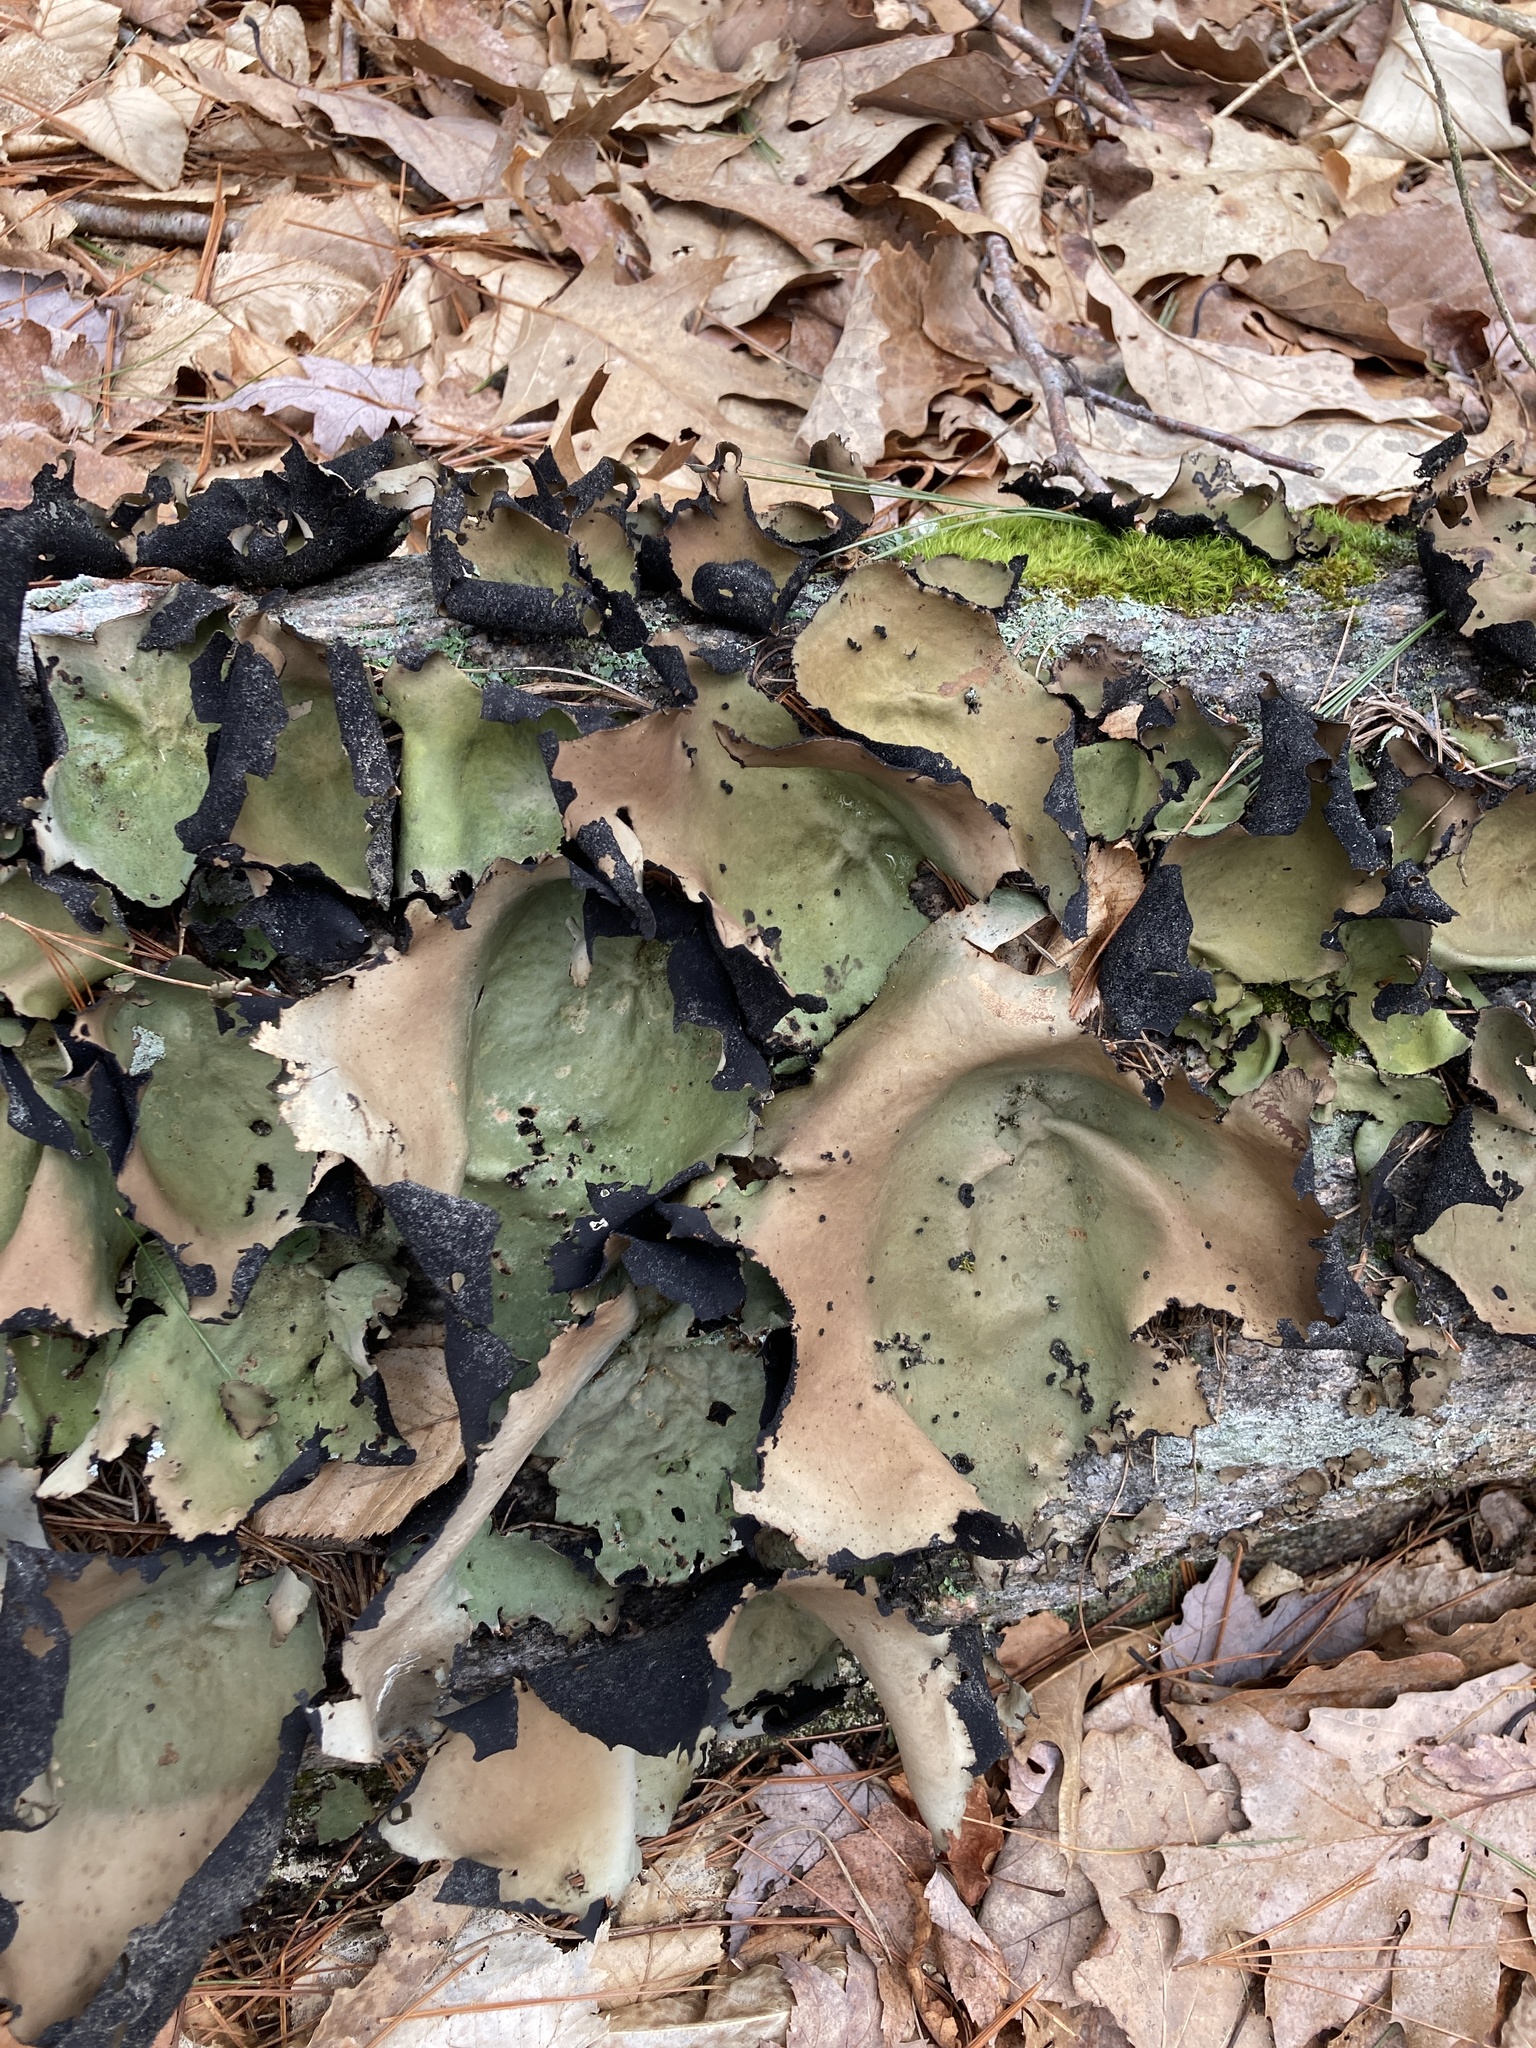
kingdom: Fungi
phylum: Ascomycota
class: Lecanoromycetes
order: Umbilicariales
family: Umbilicariaceae
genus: Umbilicaria
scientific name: Umbilicaria mammulata
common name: Smooth rock tripe
